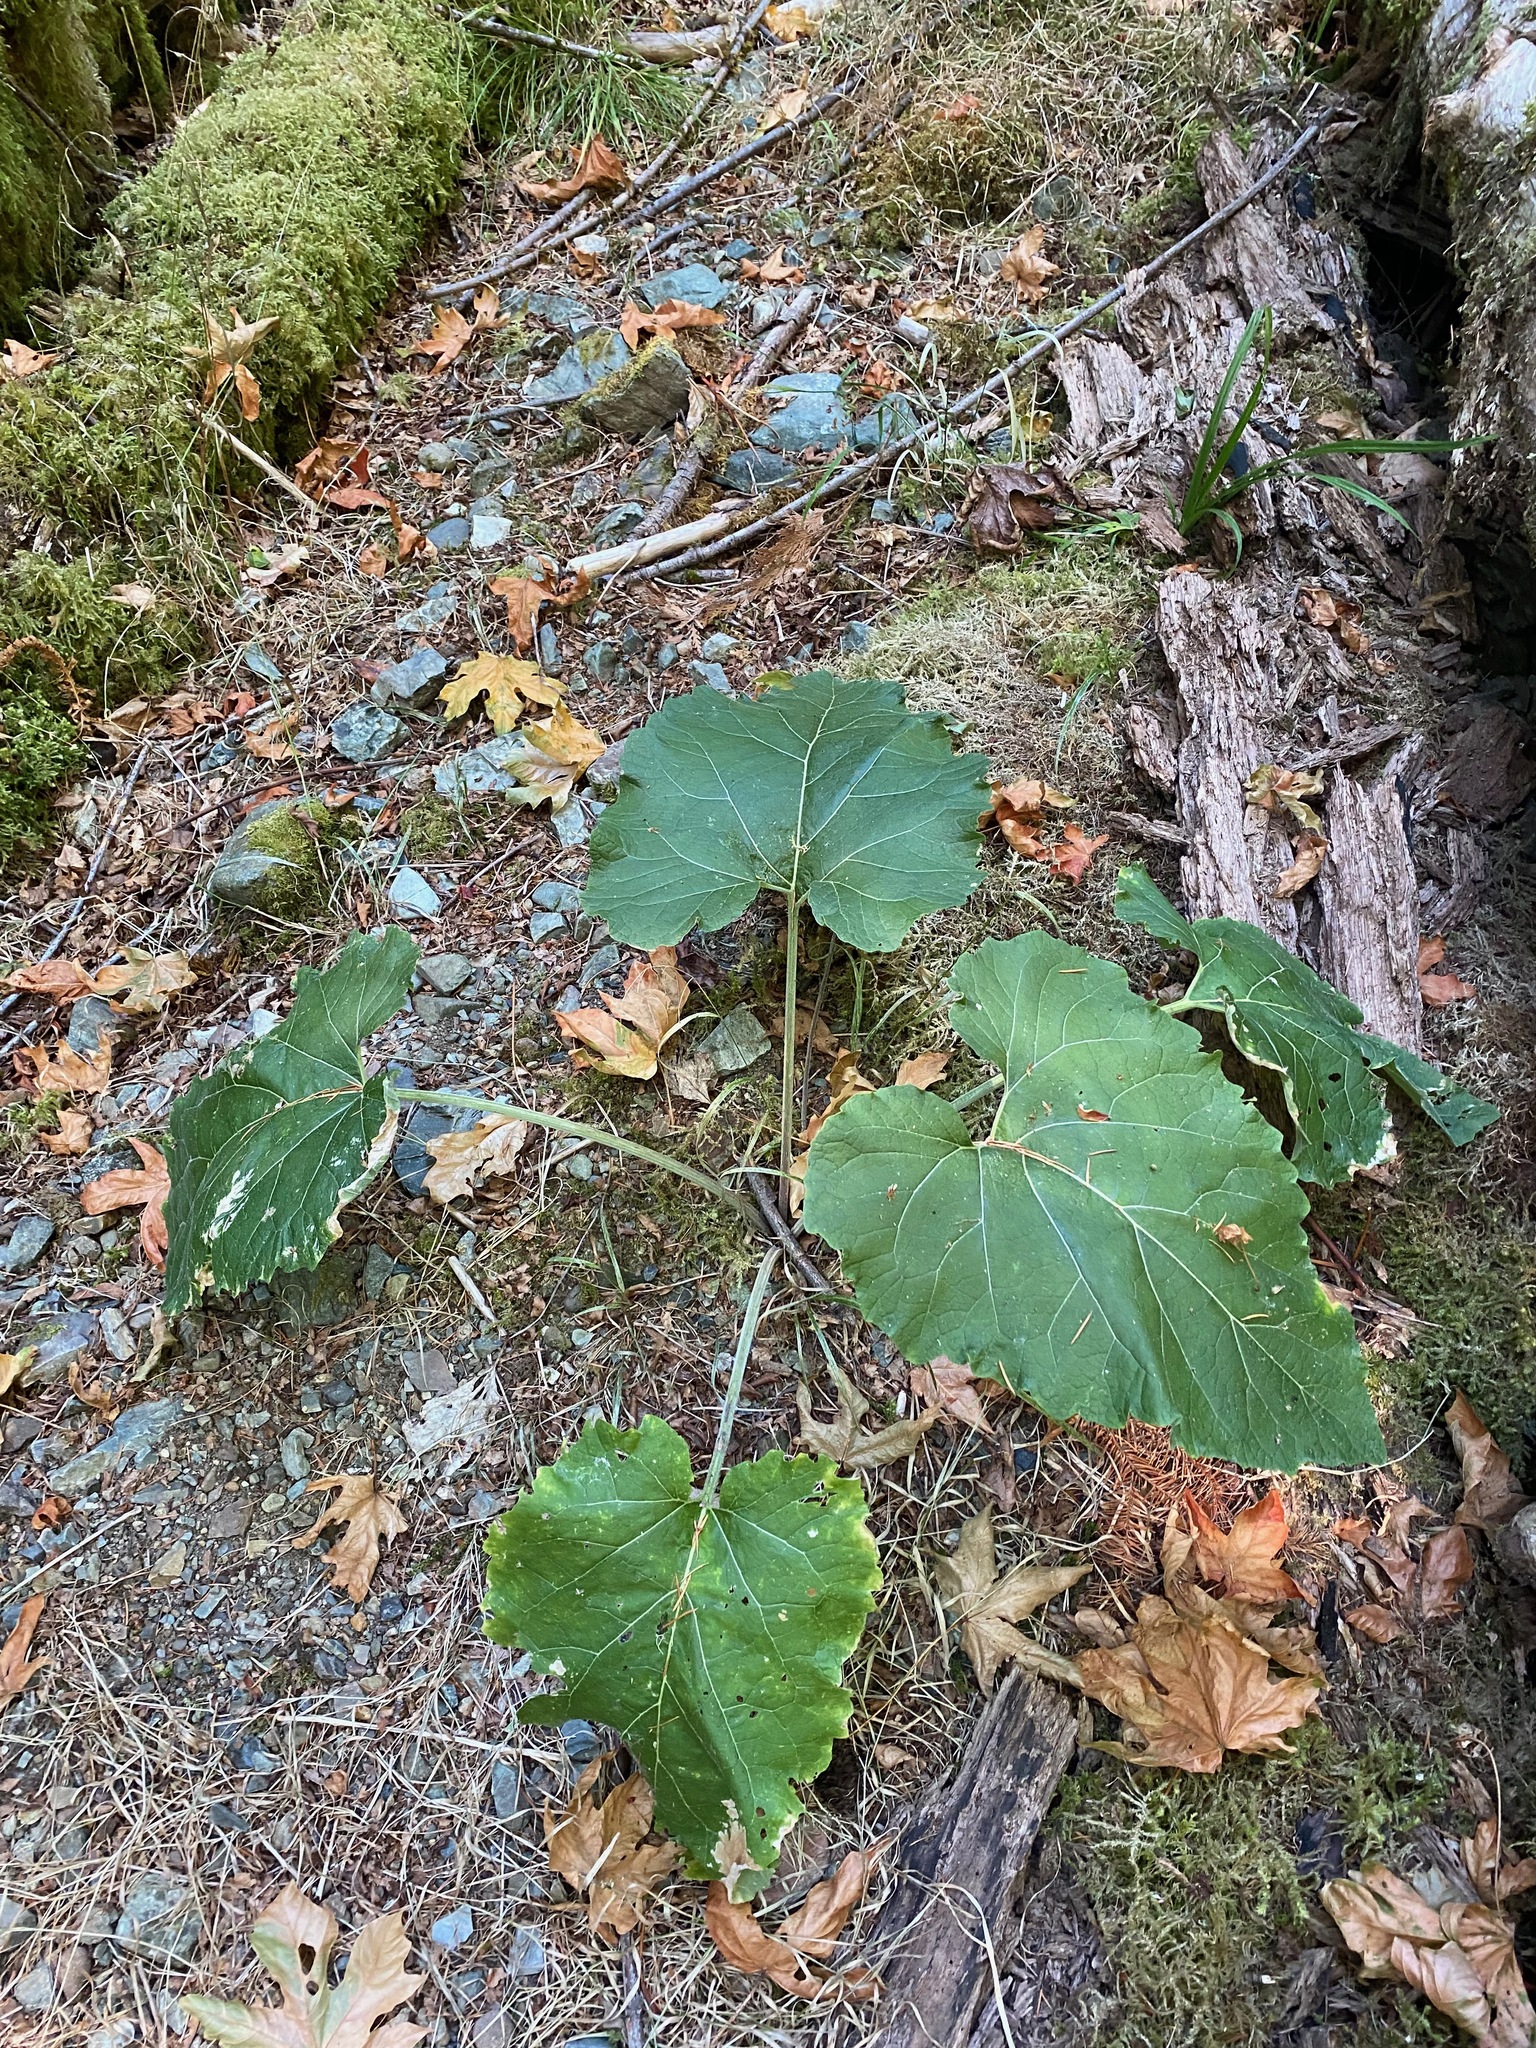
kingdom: Plantae
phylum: Tracheophyta
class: Magnoliopsida
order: Asterales
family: Asteraceae
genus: Arctium
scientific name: Arctium
